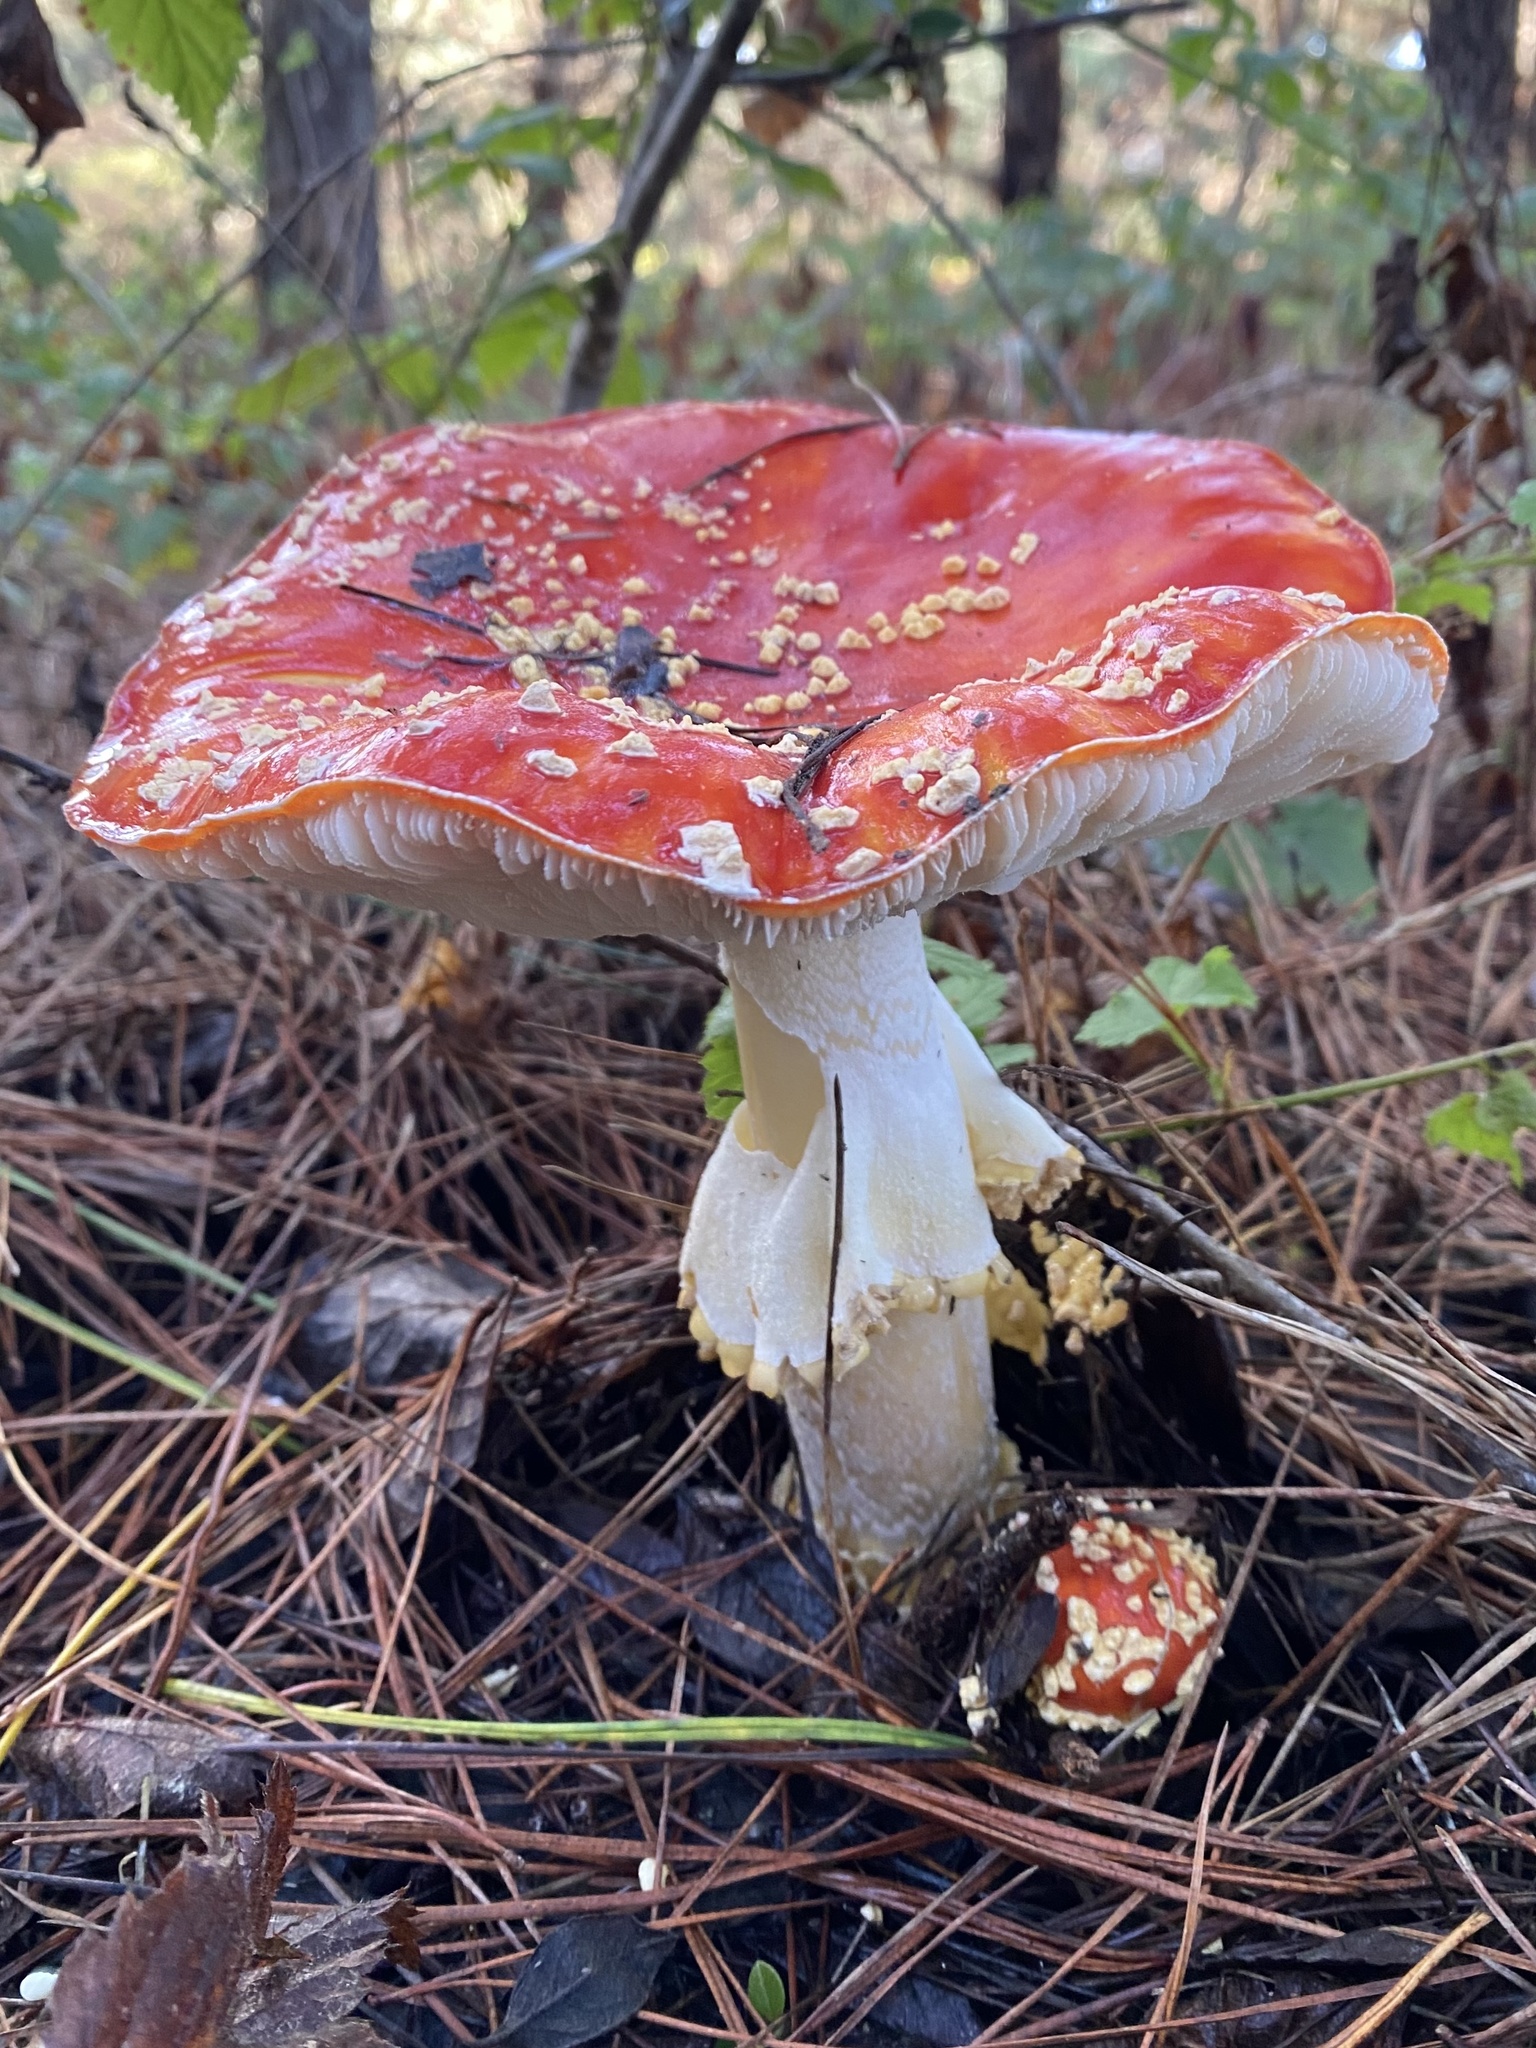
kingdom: Fungi
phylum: Basidiomycota
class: Agaricomycetes
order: Agaricales
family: Amanitaceae
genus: Amanita
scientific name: Amanita muscaria
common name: Fly agaric
